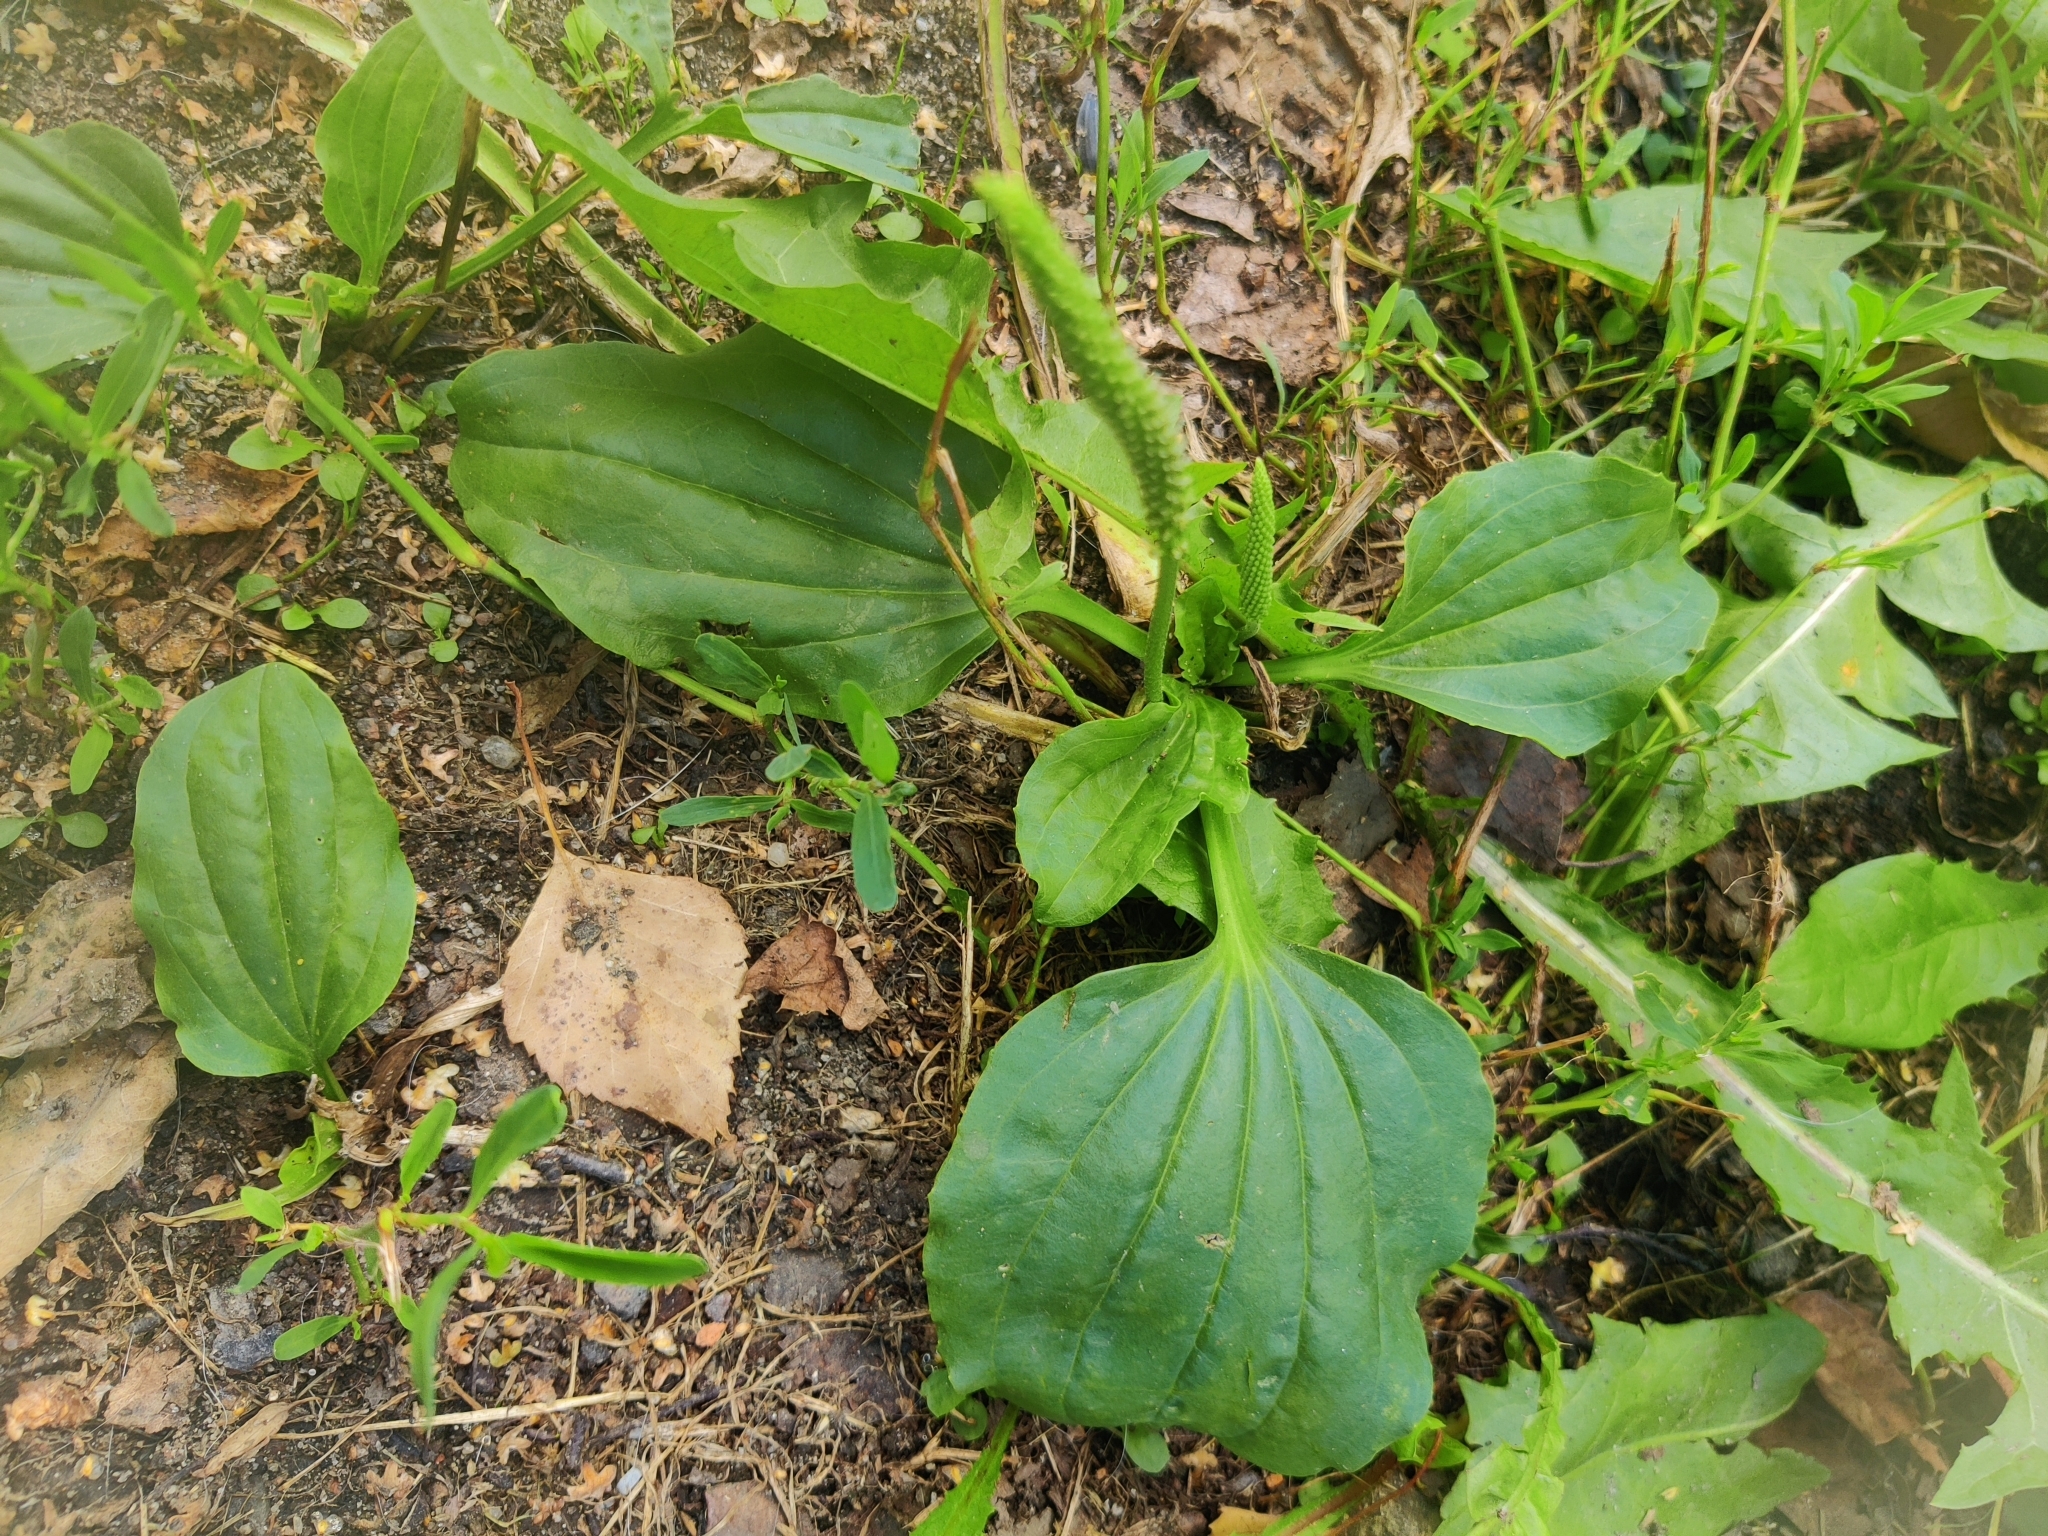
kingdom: Plantae
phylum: Tracheophyta
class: Magnoliopsida
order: Lamiales
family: Plantaginaceae
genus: Plantago
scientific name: Plantago major
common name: Common plantain
